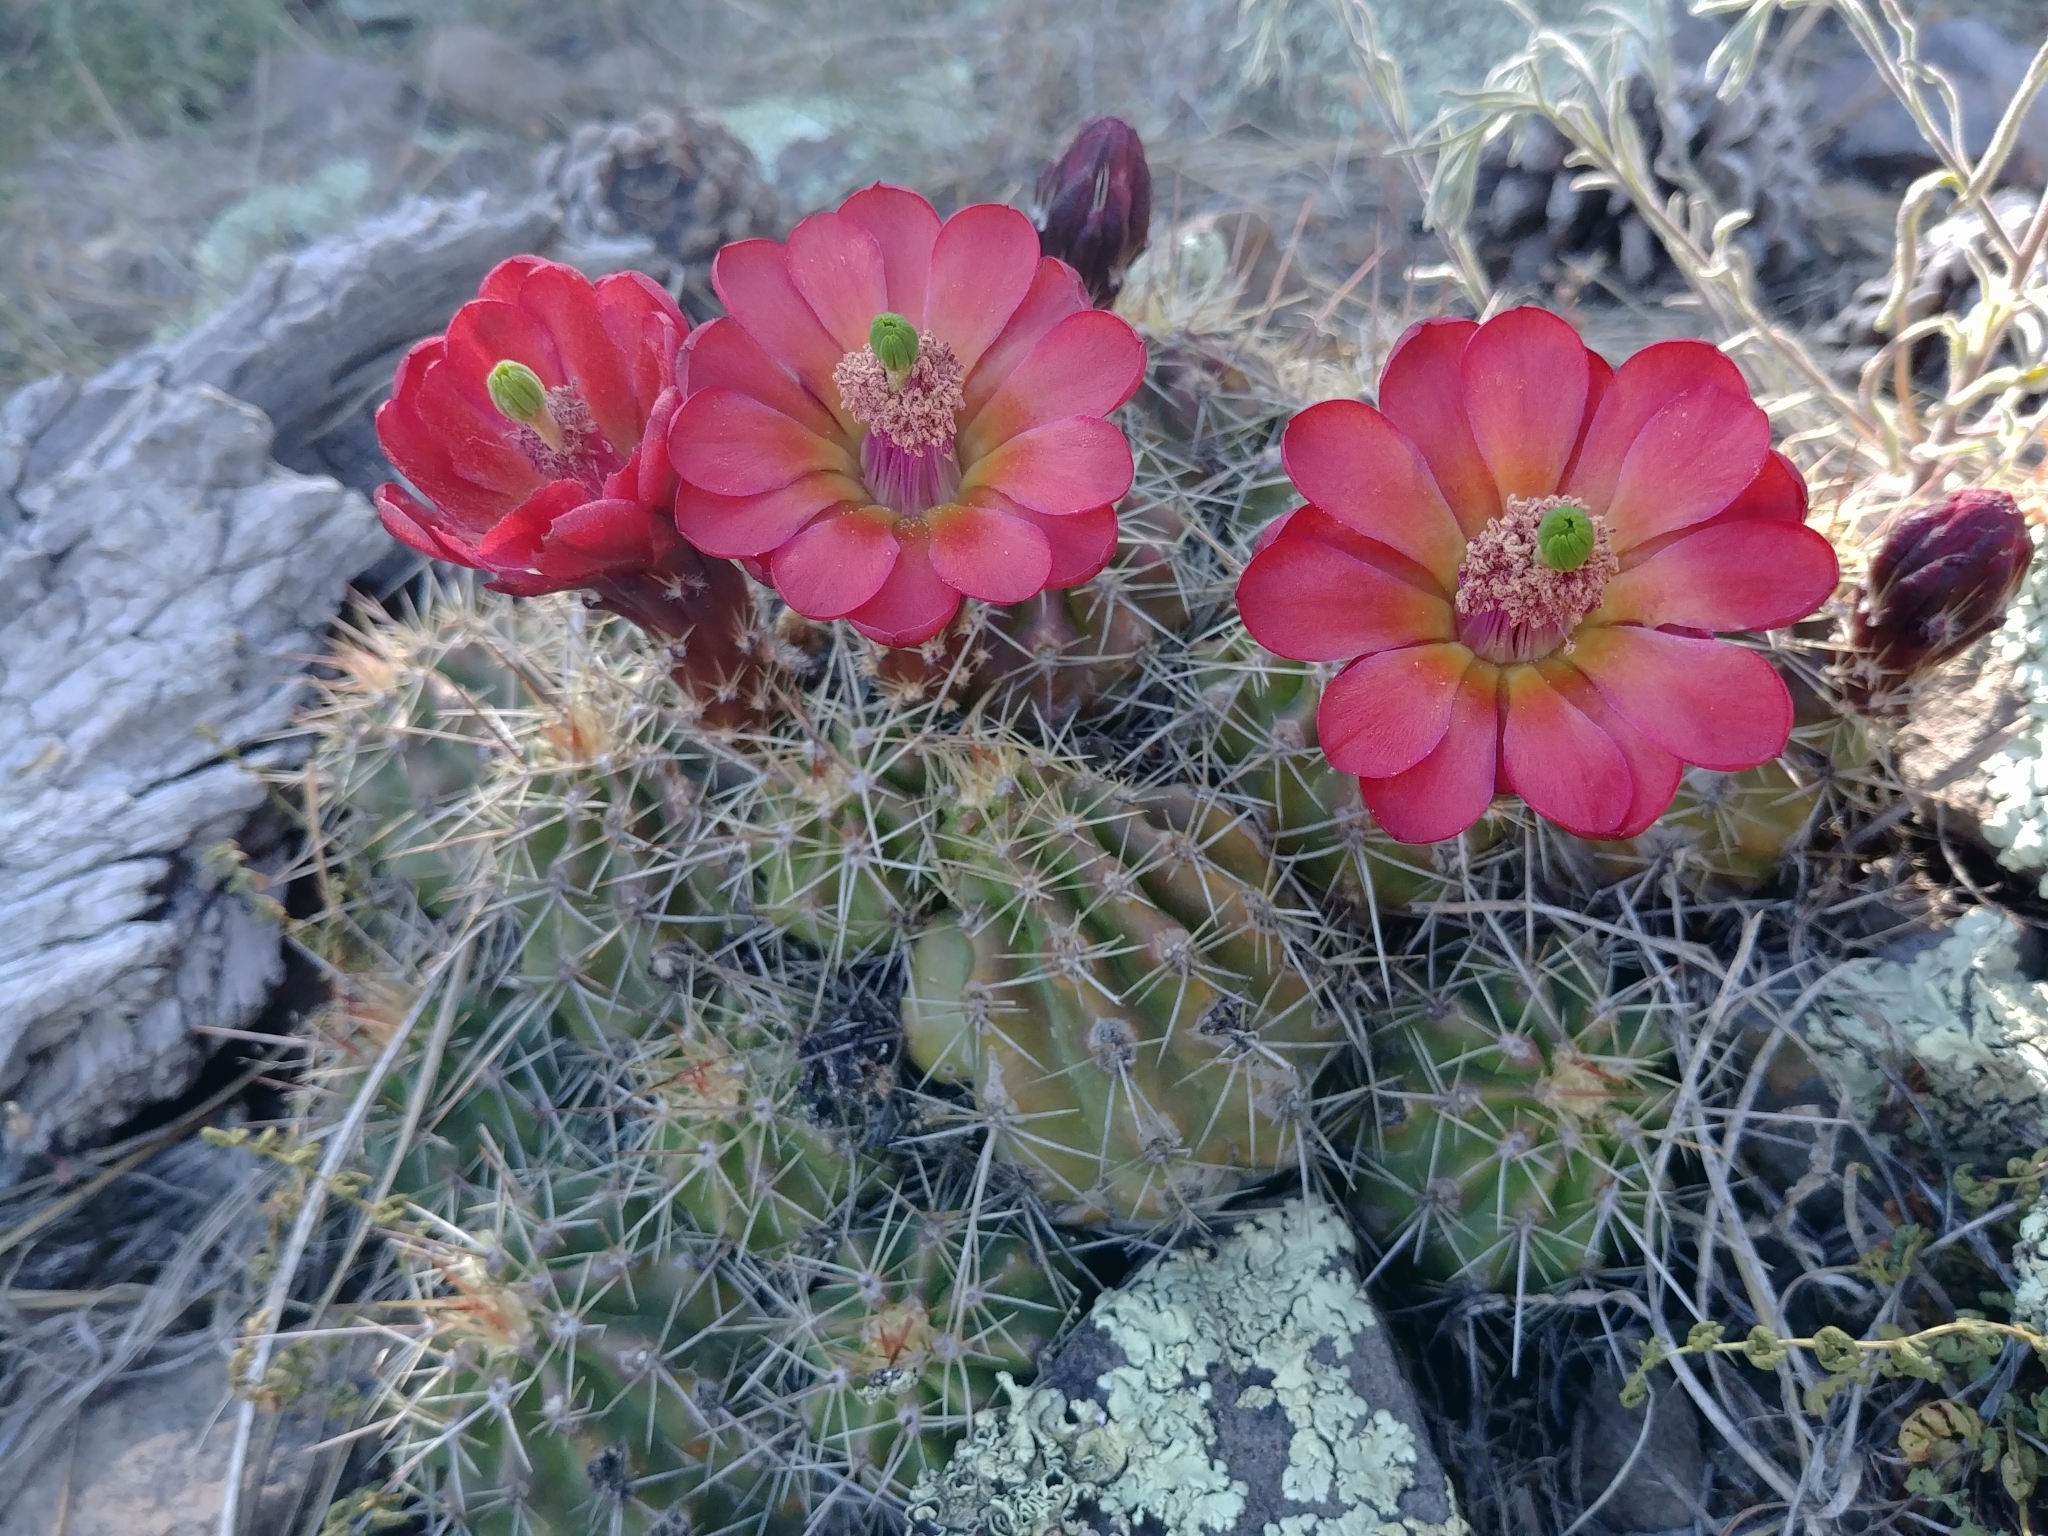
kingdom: Plantae
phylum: Tracheophyta
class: Magnoliopsida
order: Caryophyllales
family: Cactaceae
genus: Echinocereus
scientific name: Echinocereus bakeri
